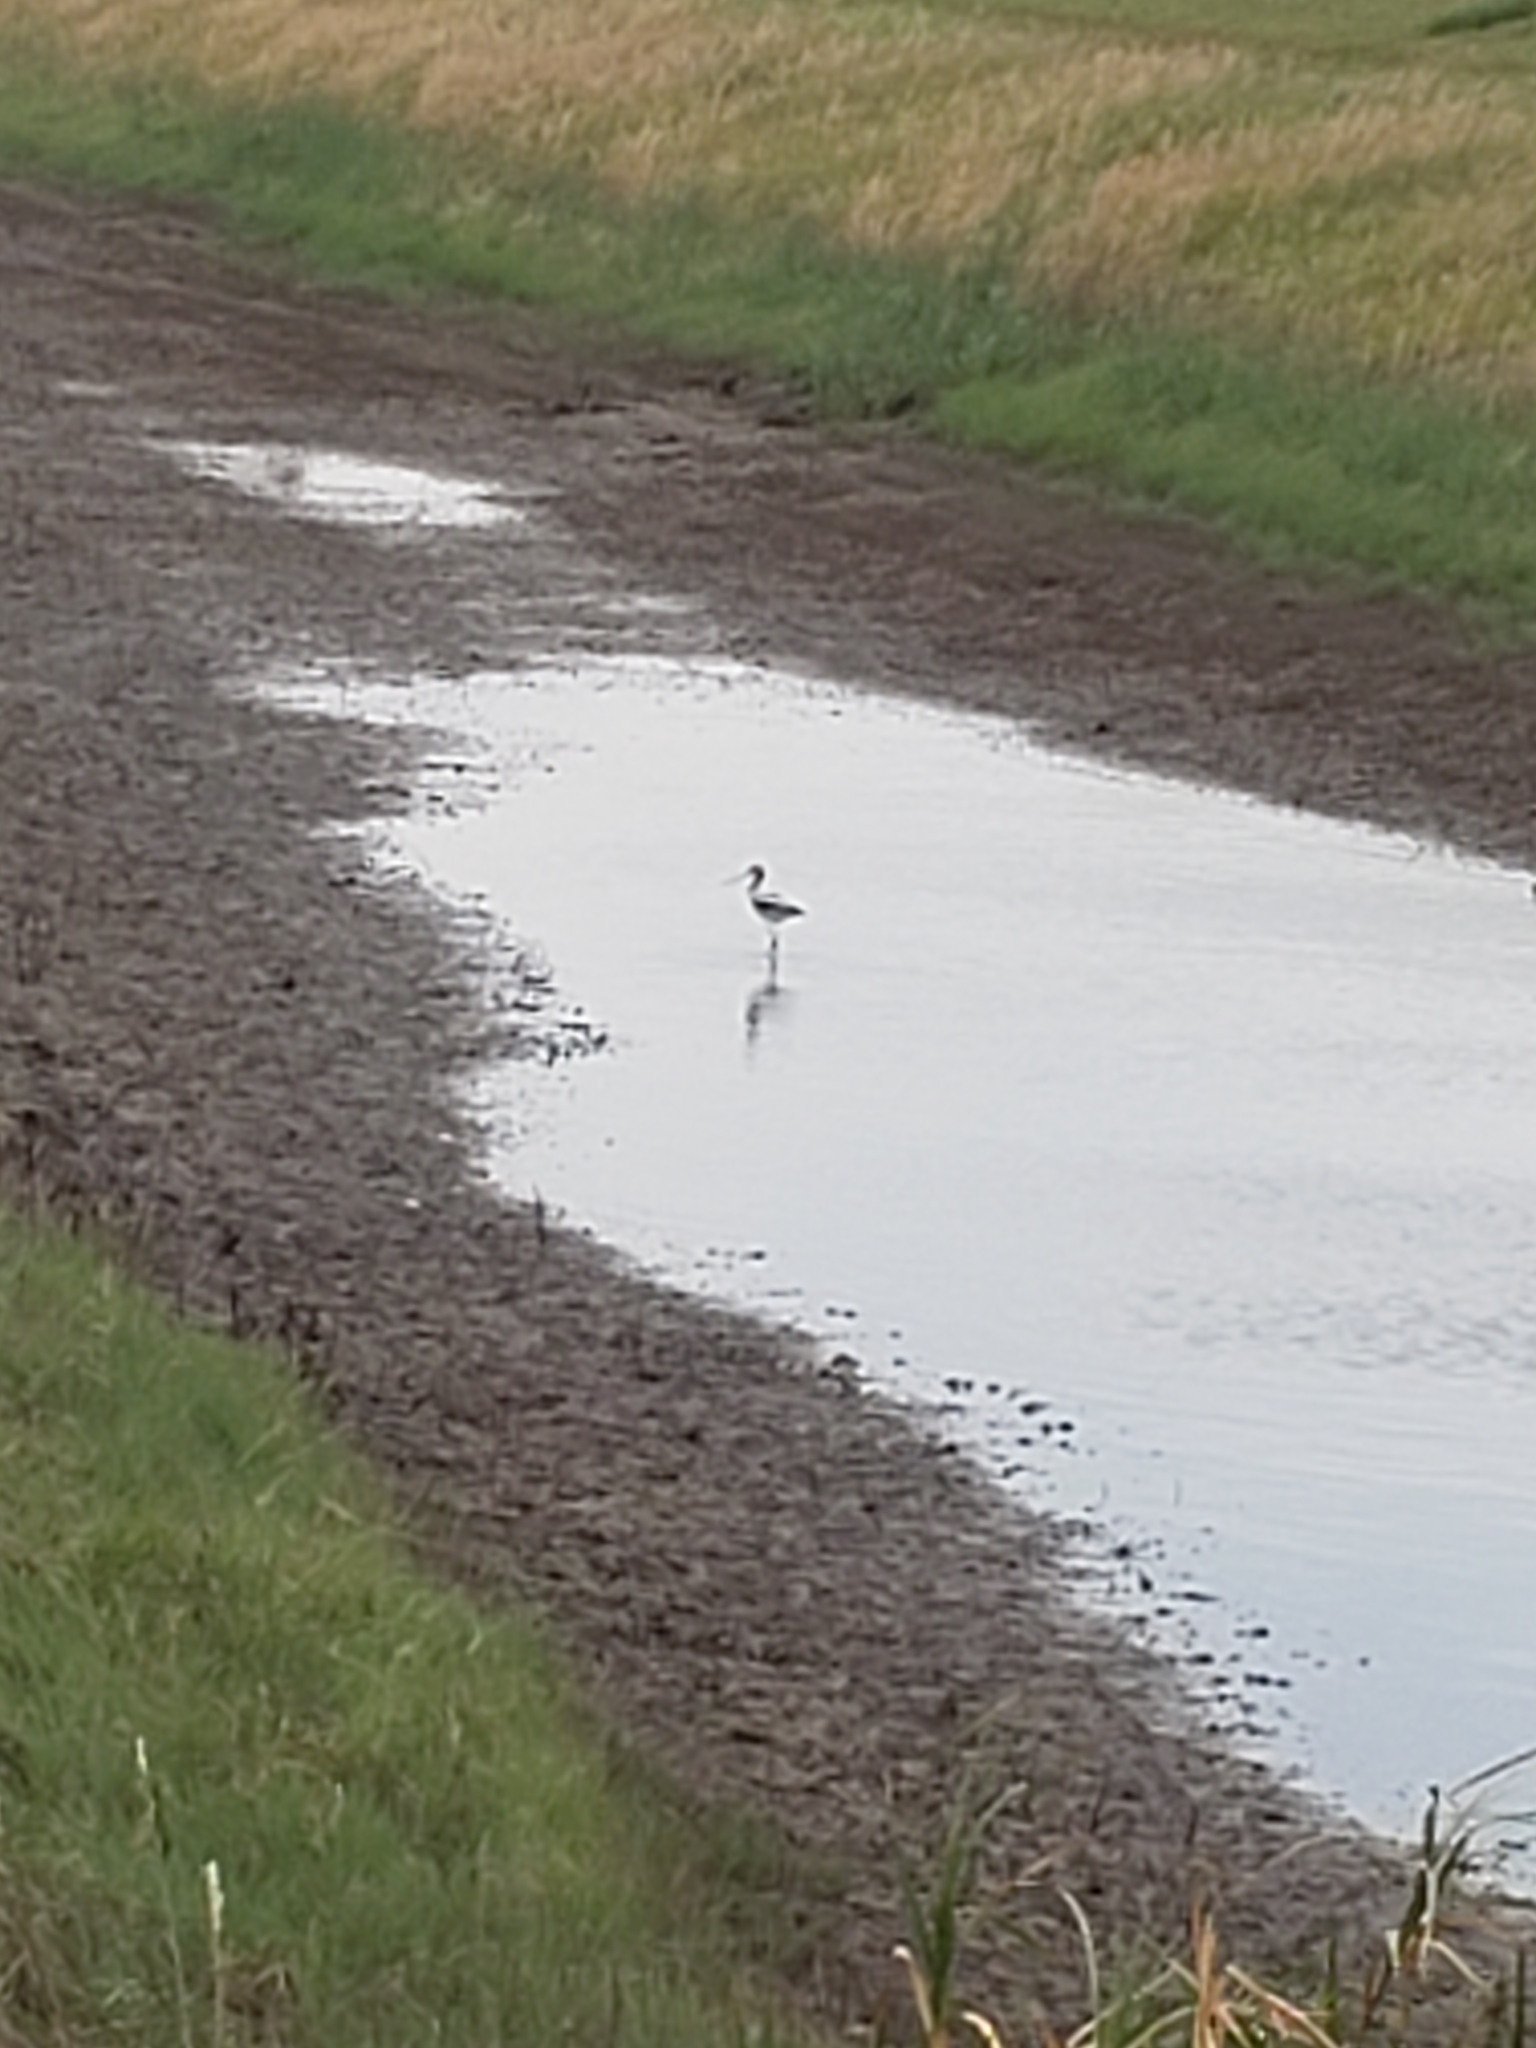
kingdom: Animalia
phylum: Chordata
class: Aves
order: Charadriiformes
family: Recurvirostridae
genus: Recurvirostra
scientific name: Recurvirostra americana
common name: American avocet
